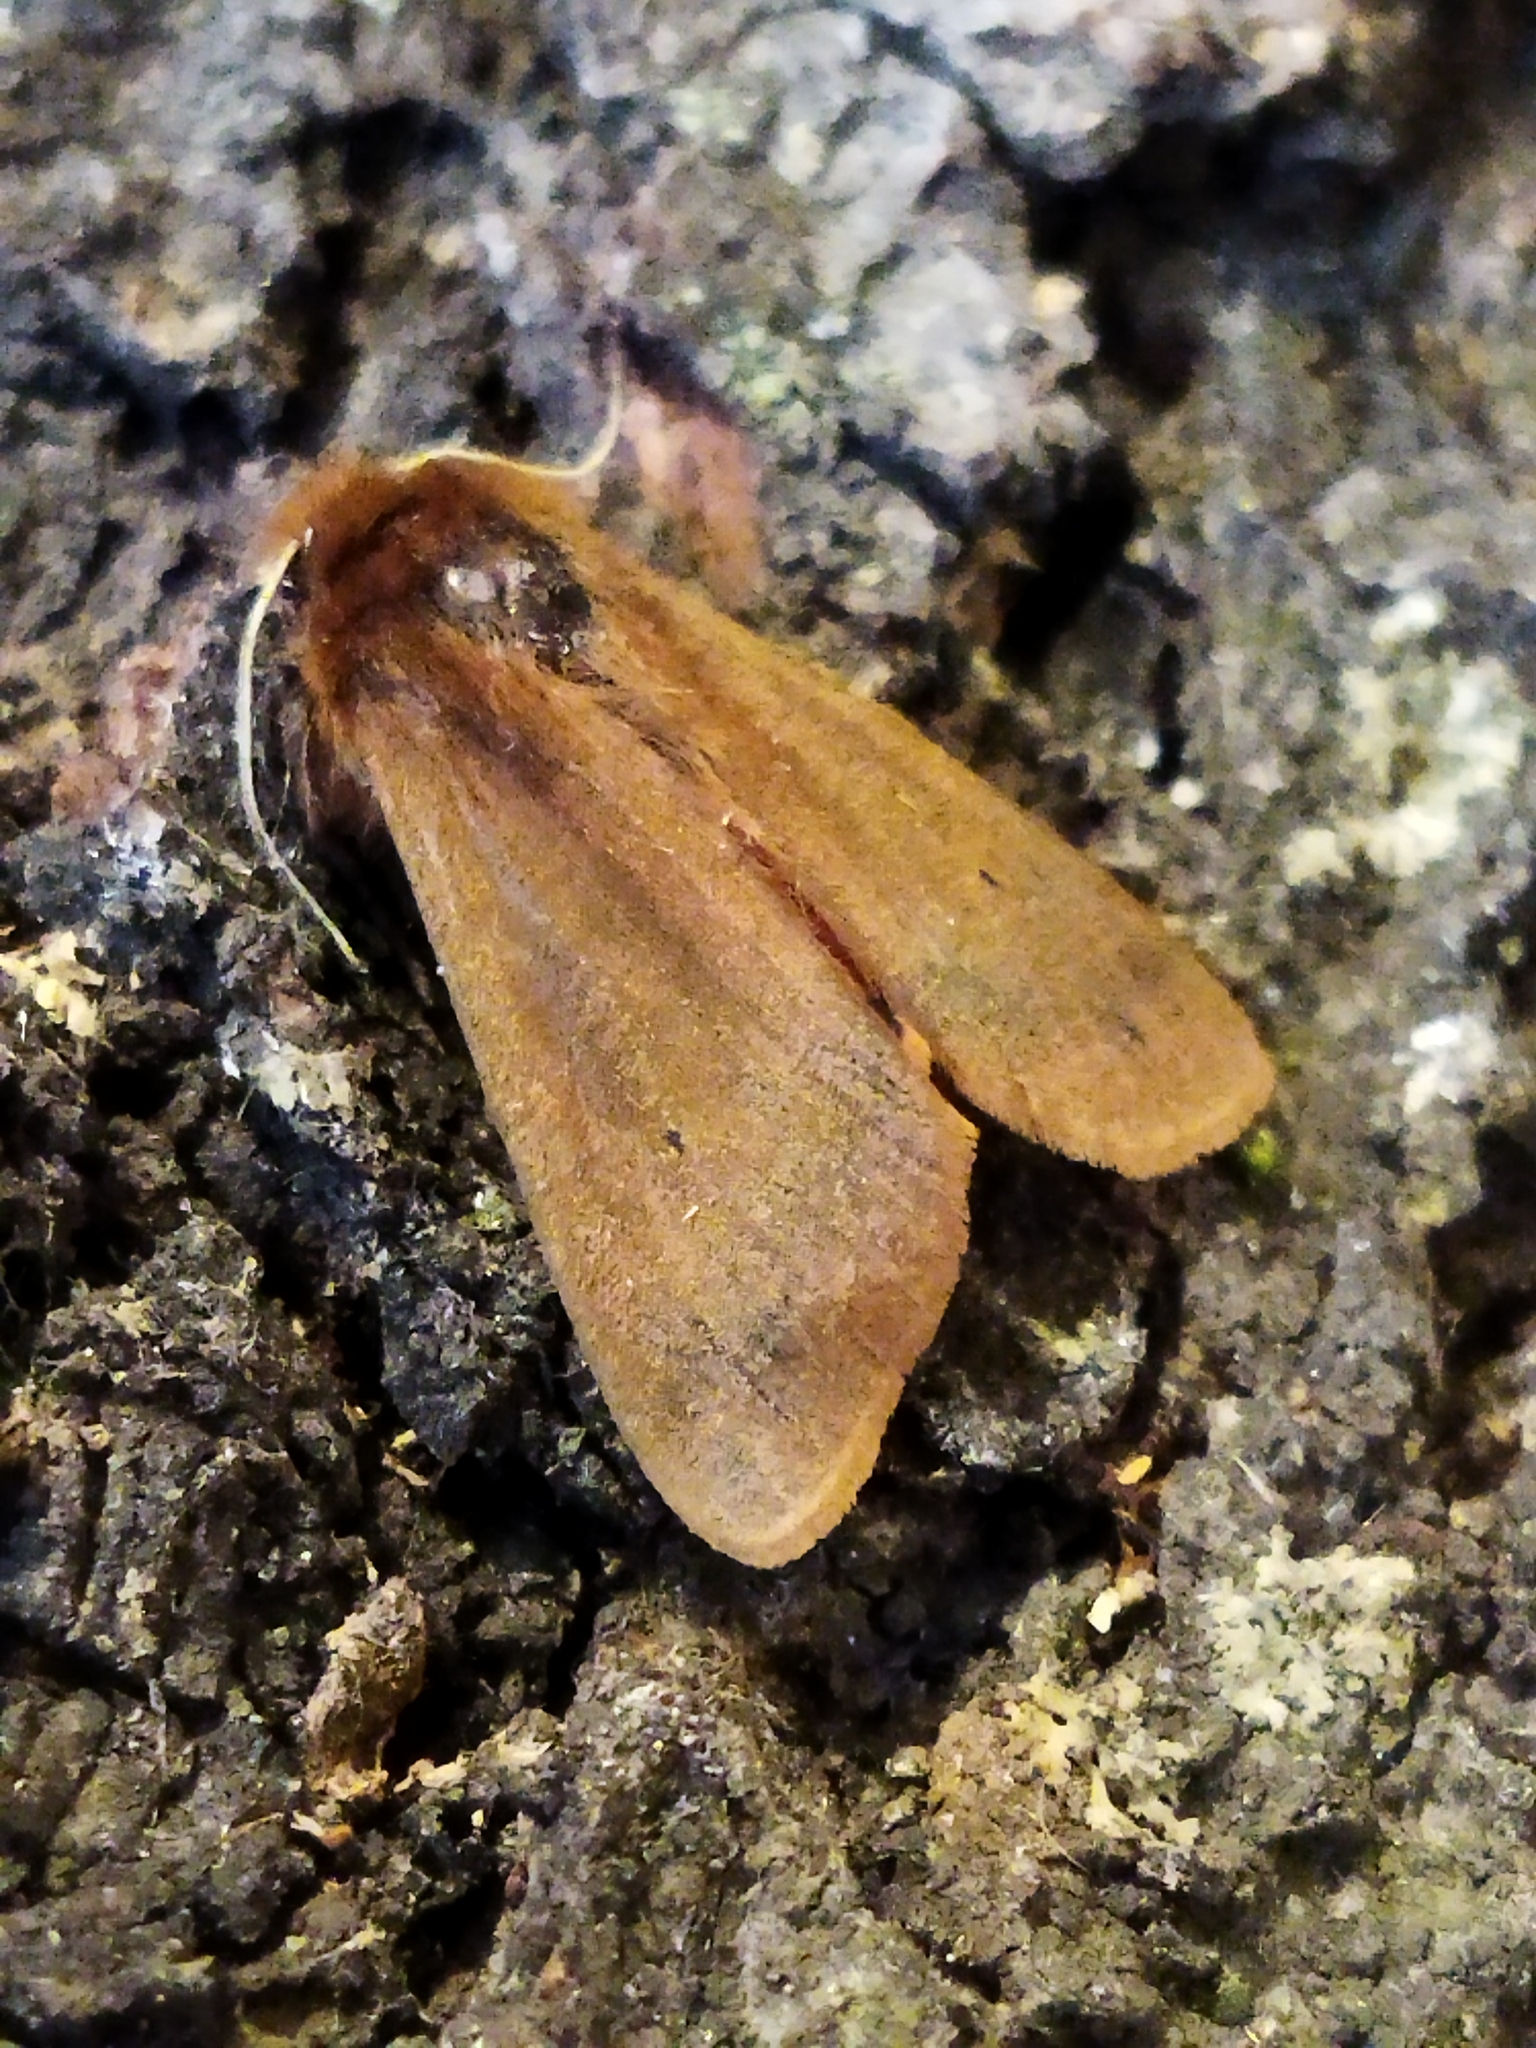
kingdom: Animalia
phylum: Arthropoda
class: Insecta
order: Lepidoptera
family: Erebidae
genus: Phragmatobia
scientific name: Phragmatobia fuliginosa
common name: Ruby tiger
